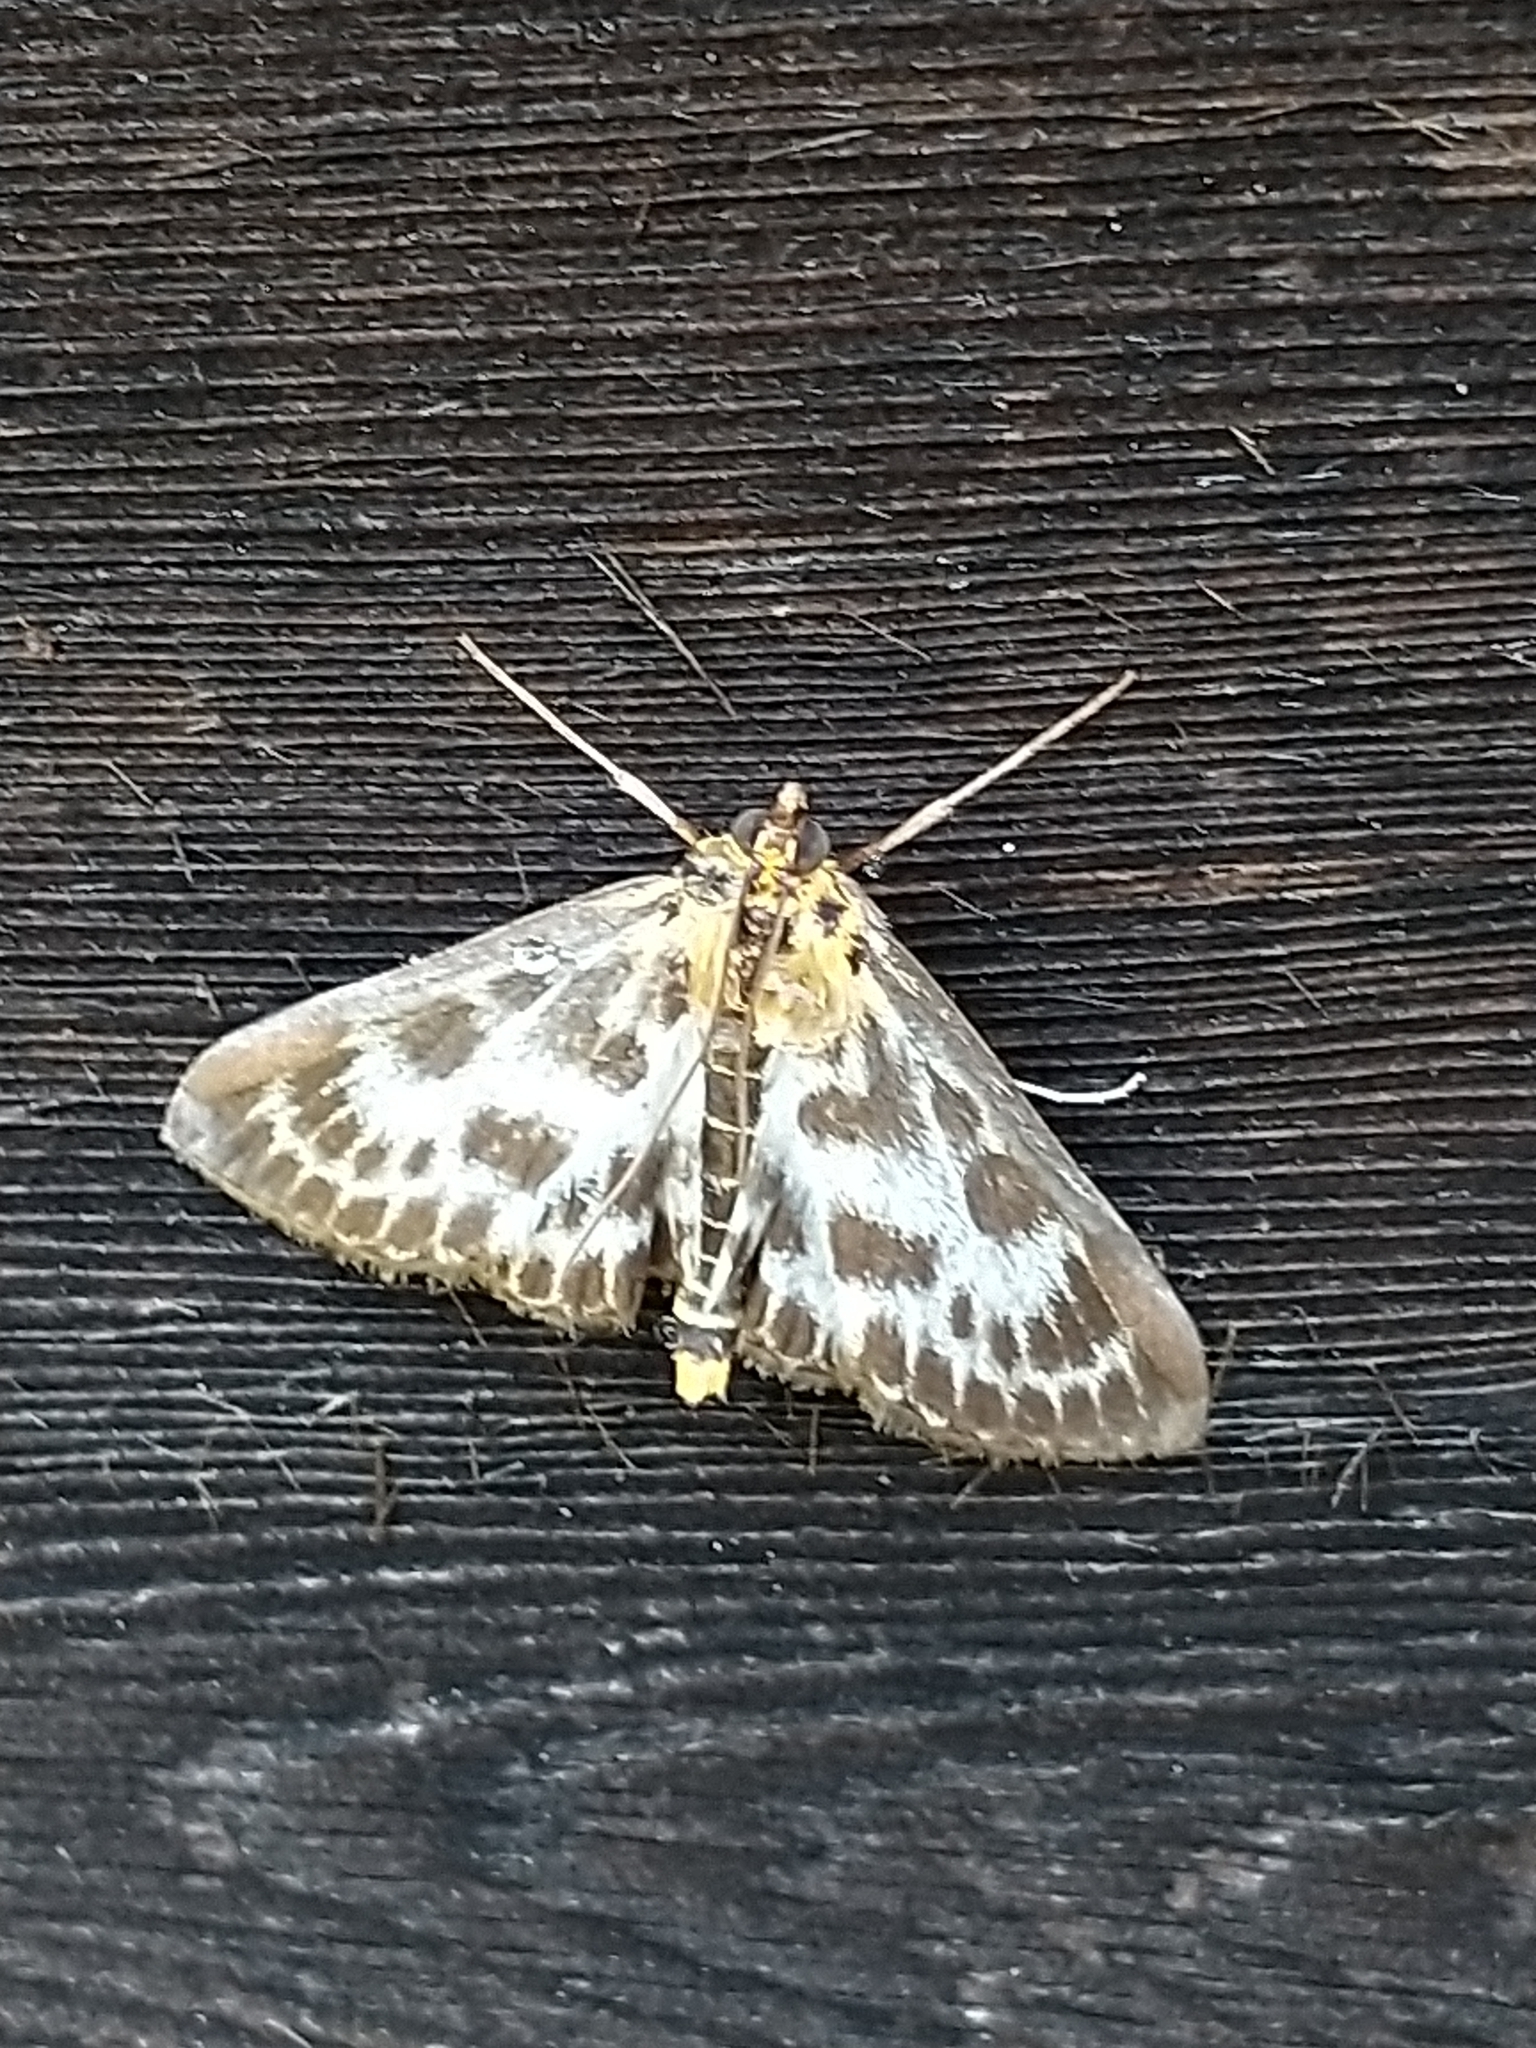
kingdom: Animalia
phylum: Arthropoda
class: Insecta
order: Lepidoptera
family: Crambidae
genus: Anania
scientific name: Anania hortulata
